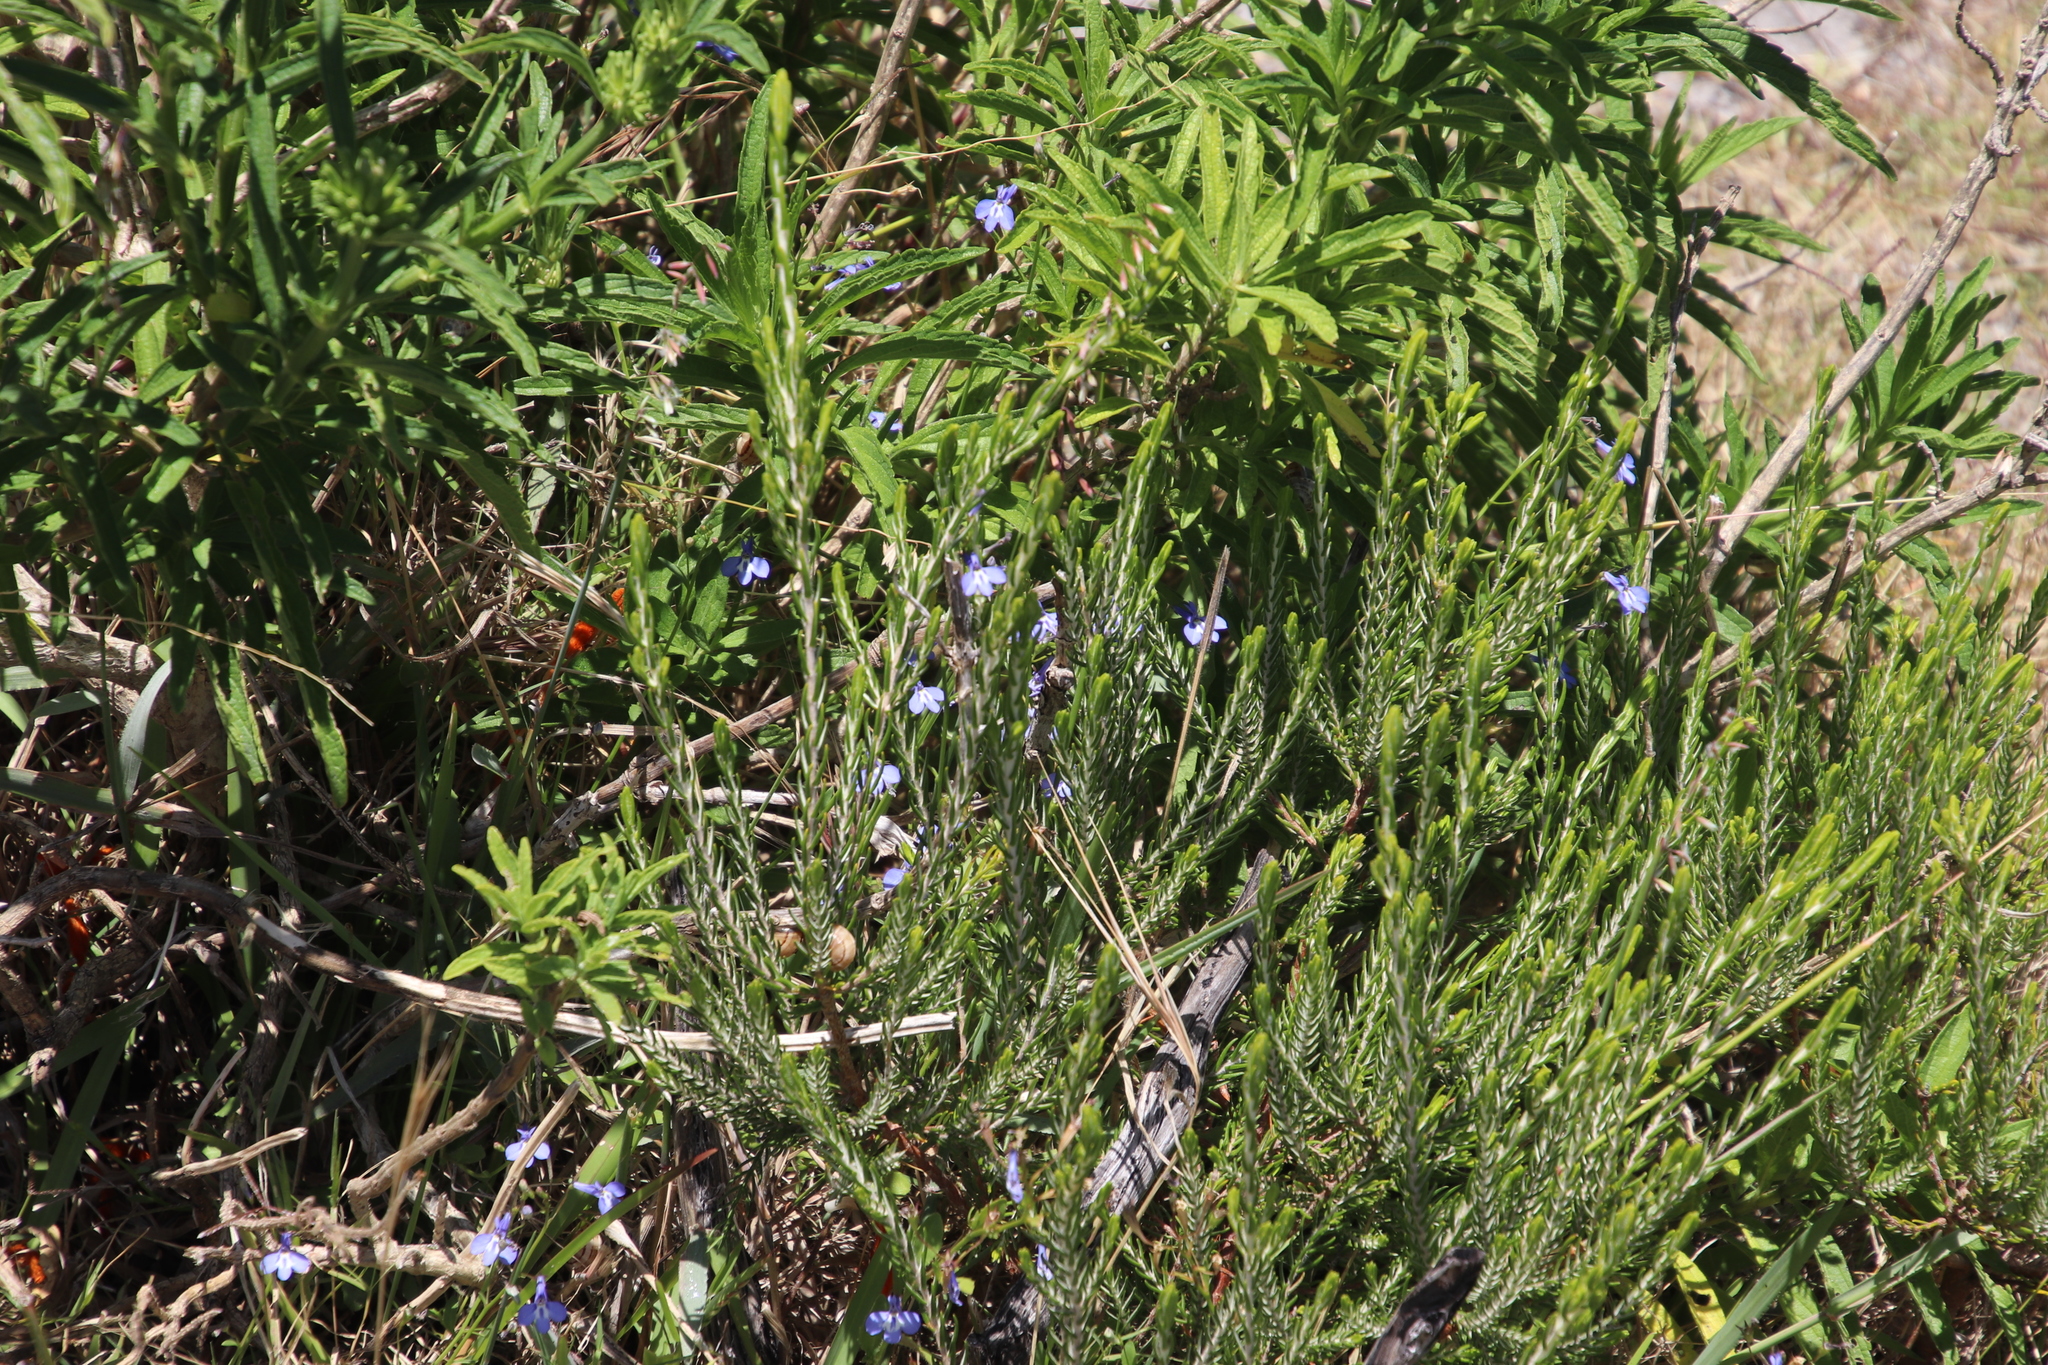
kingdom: Plantae
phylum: Tracheophyta
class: Magnoliopsida
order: Lamiales
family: Lamiaceae
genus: Leonotis
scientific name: Leonotis leonurus
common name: Lion's ear
